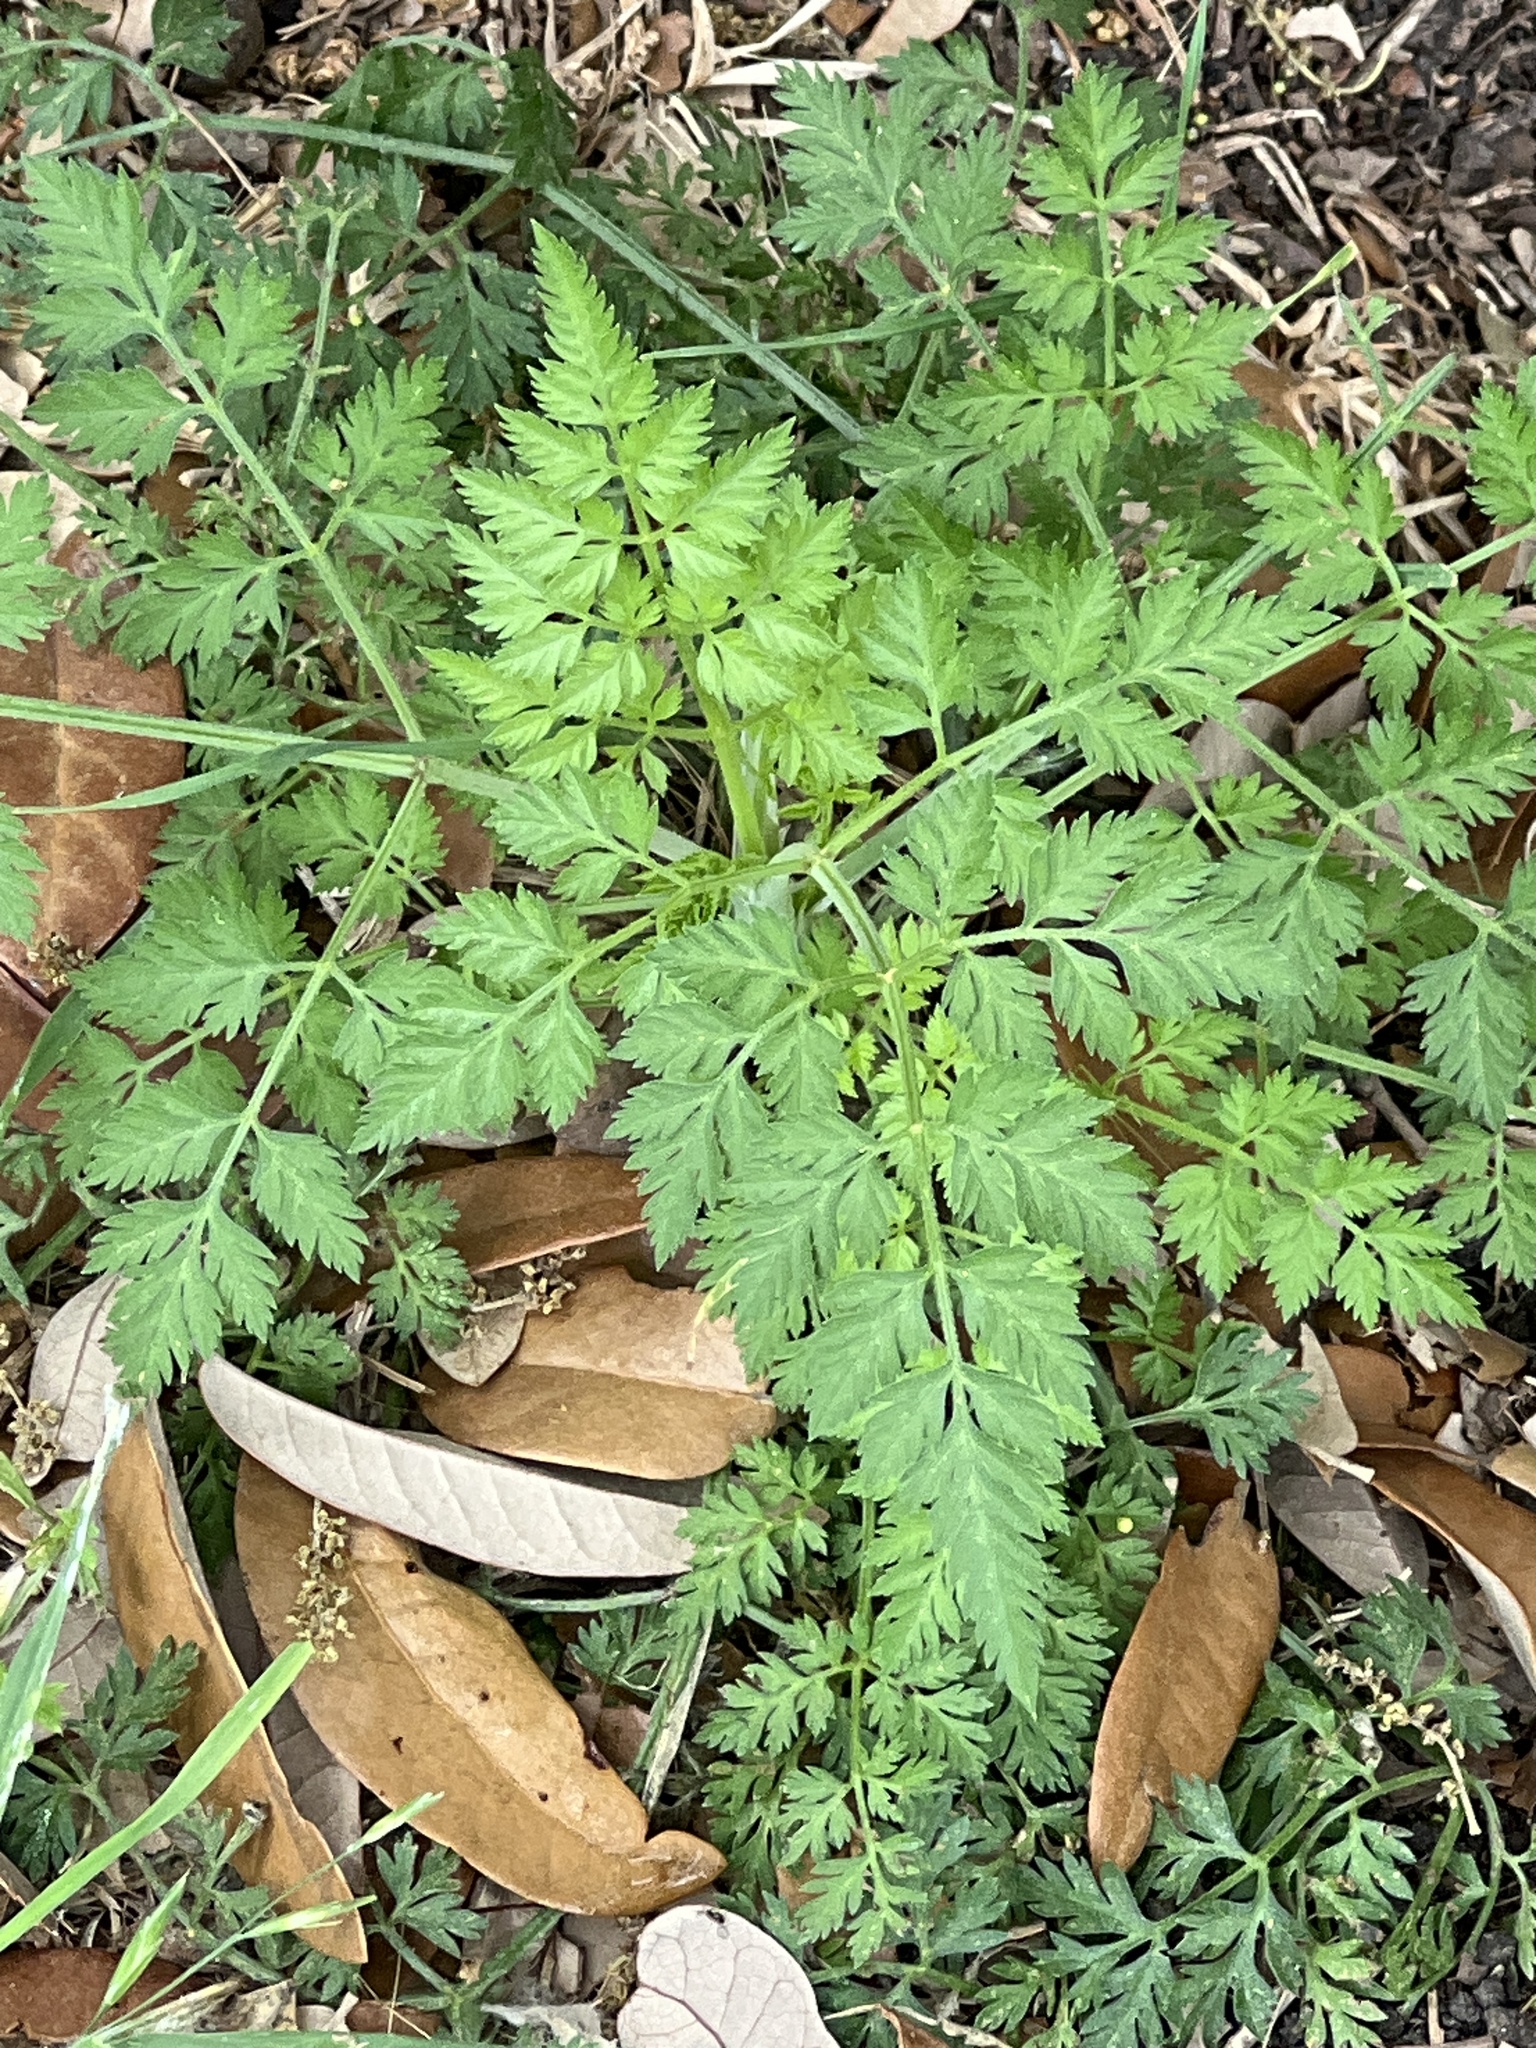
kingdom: Plantae
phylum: Tracheophyta
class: Magnoliopsida
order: Apiales
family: Apiaceae
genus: Torilis
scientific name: Torilis arvensis
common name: Spreading hedge-parsley
